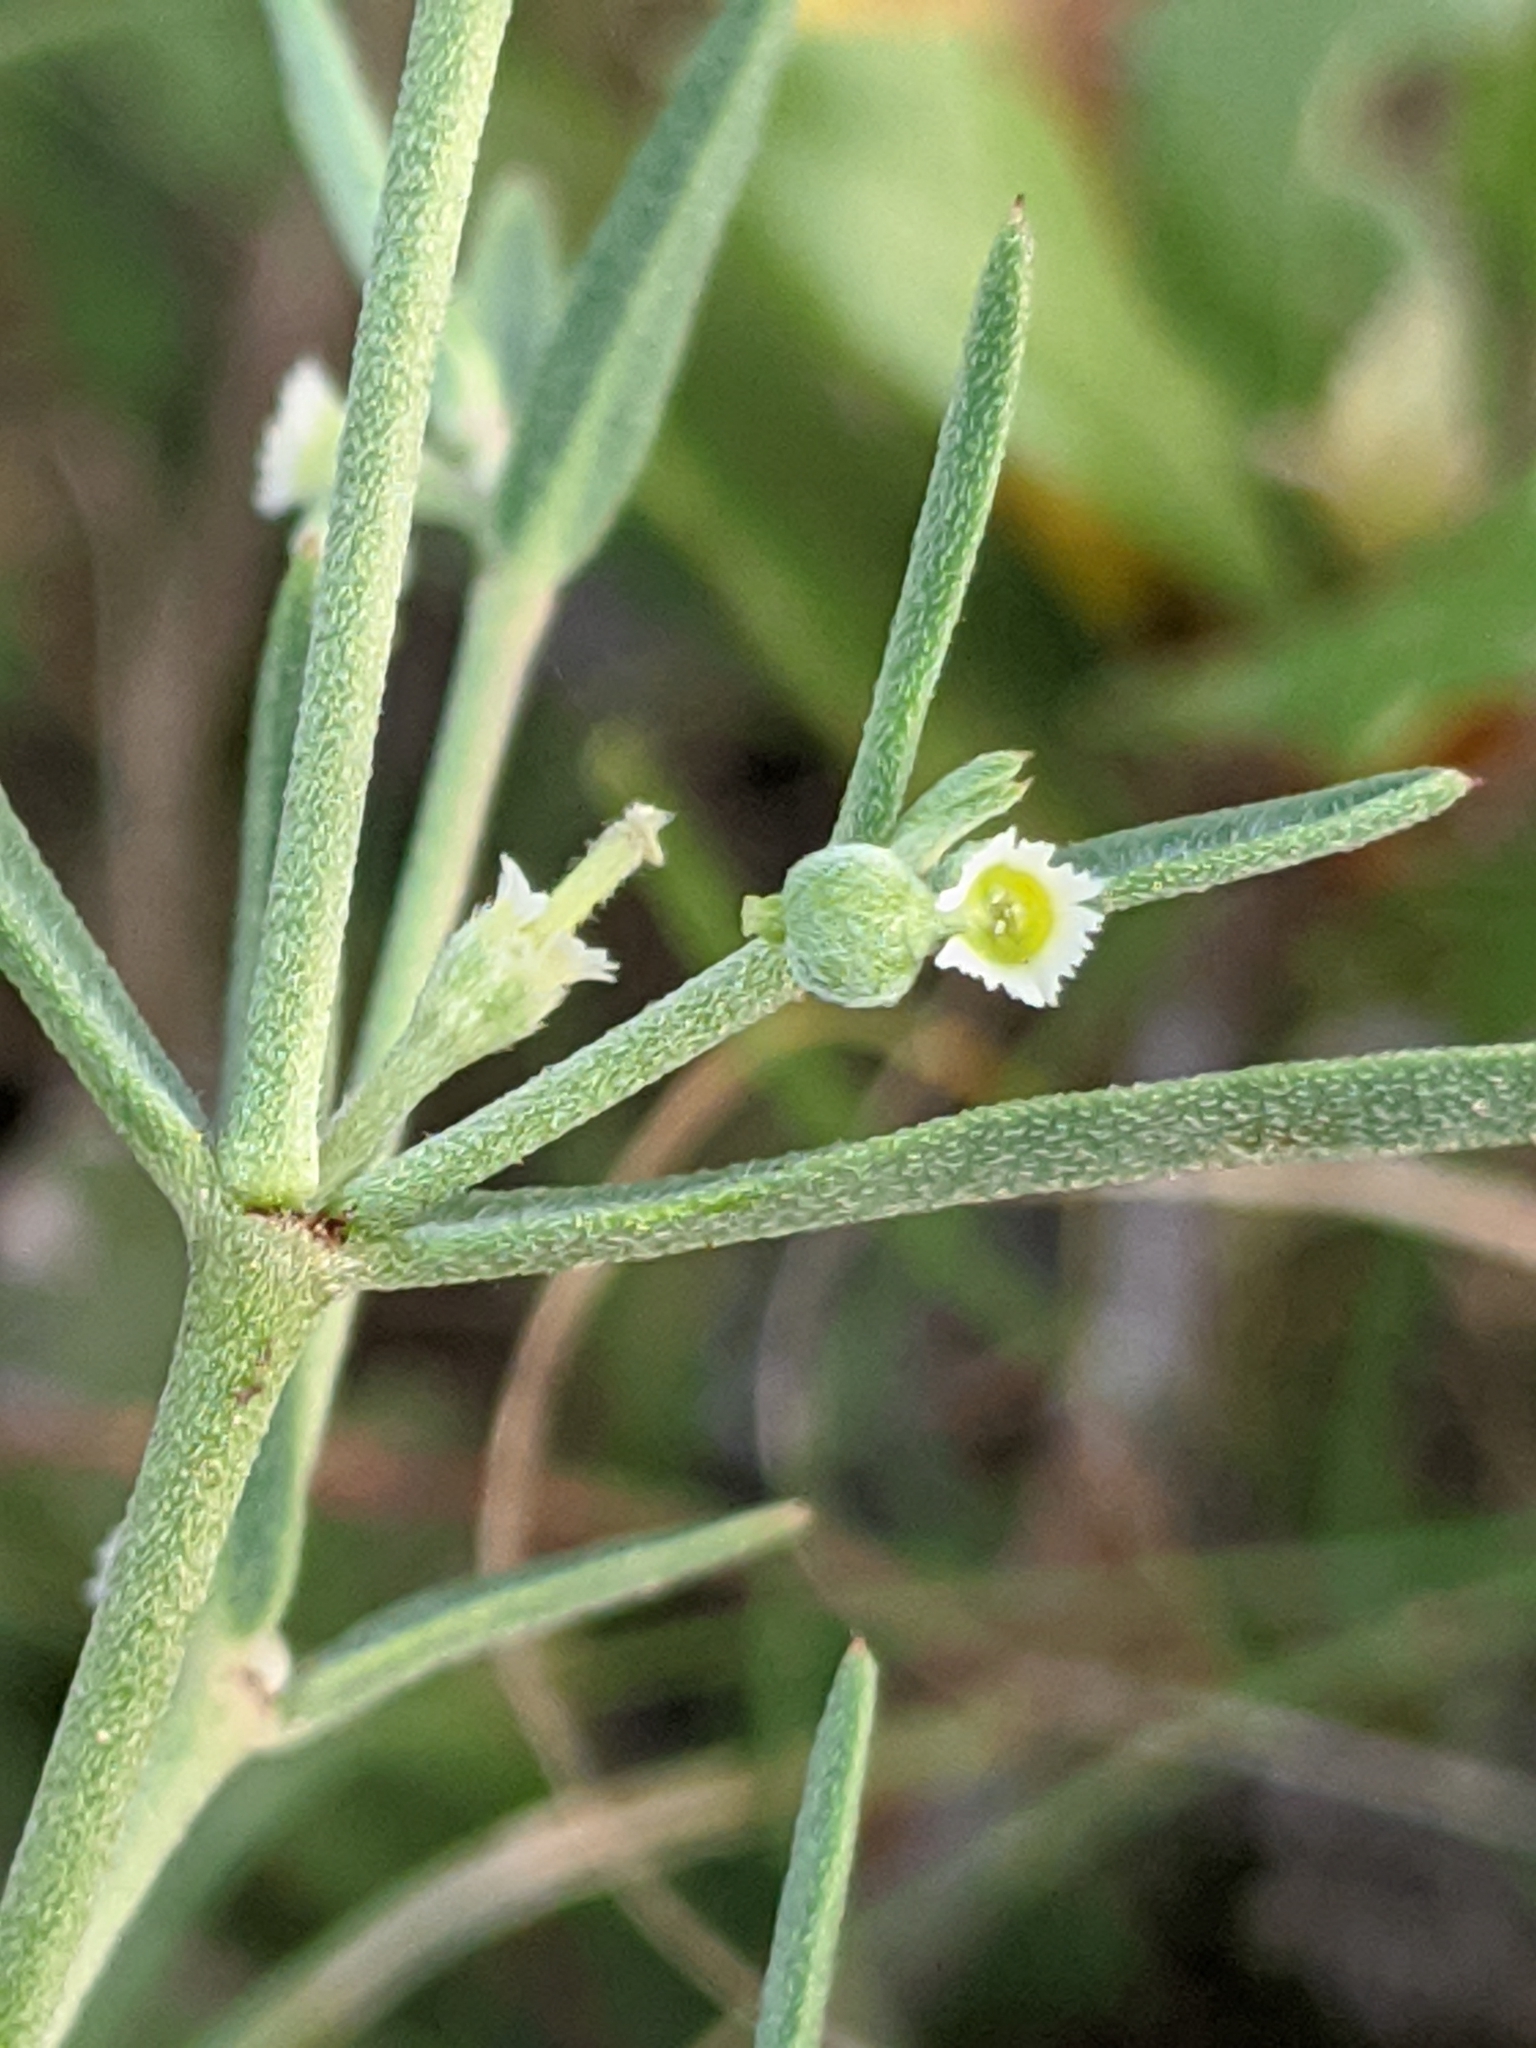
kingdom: Plantae
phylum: Tracheophyta
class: Magnoliopsida
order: Malpighiales
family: Euphorbiaceae
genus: Euphorbia
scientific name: Euphorbia angusta
